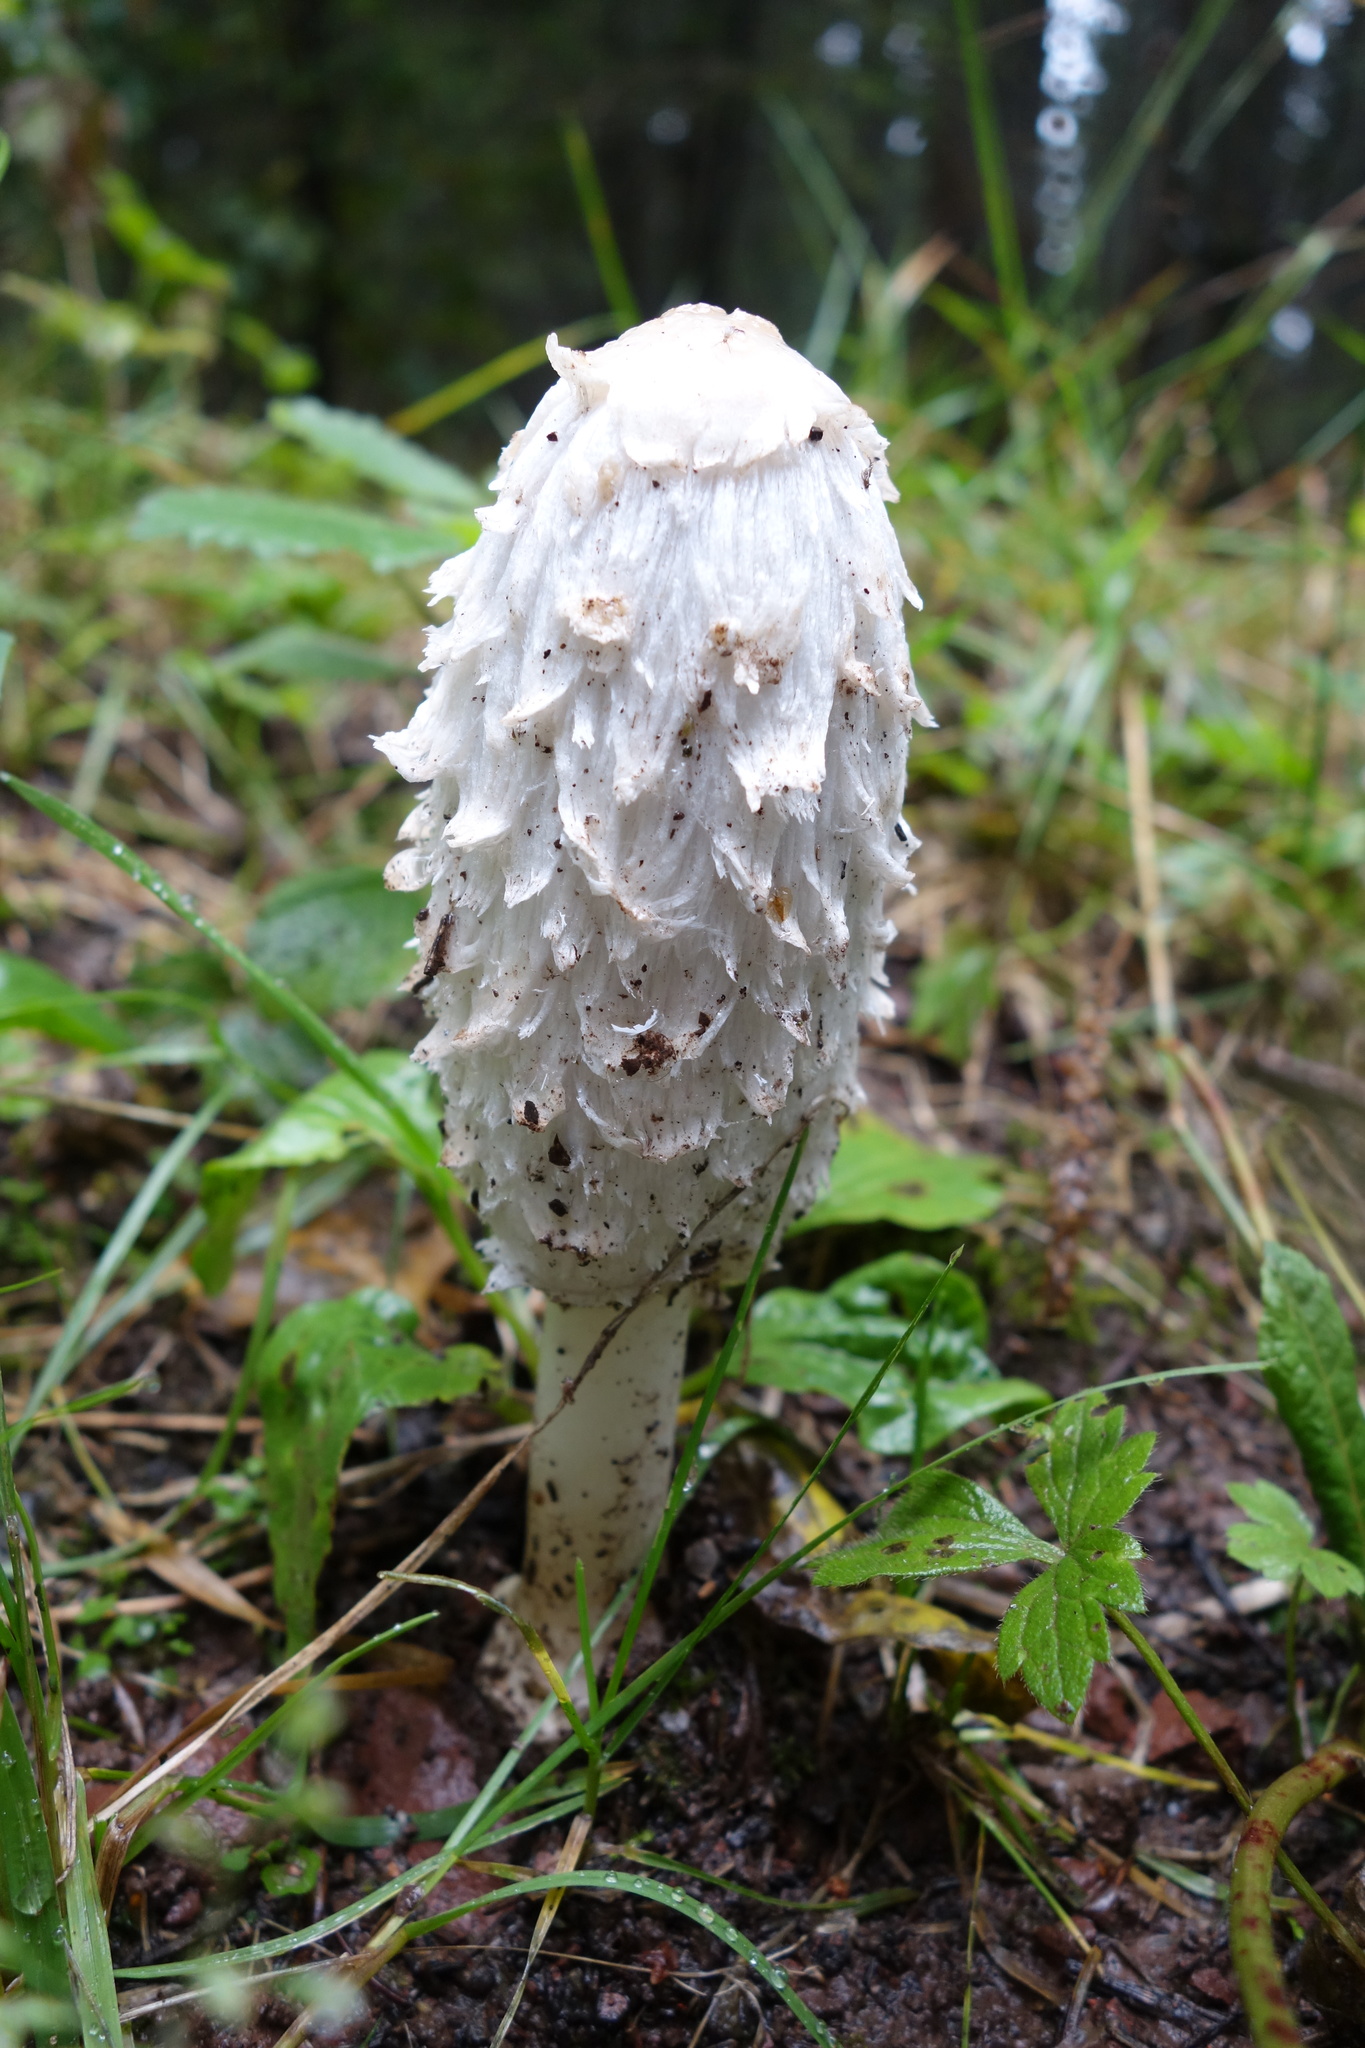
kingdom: Fungi
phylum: Basidiomycota
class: Agaricomycetes
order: Agaricales
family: Agaricaceae
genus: Coprinus
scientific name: Coprinus comatus
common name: Lawyer's wig
